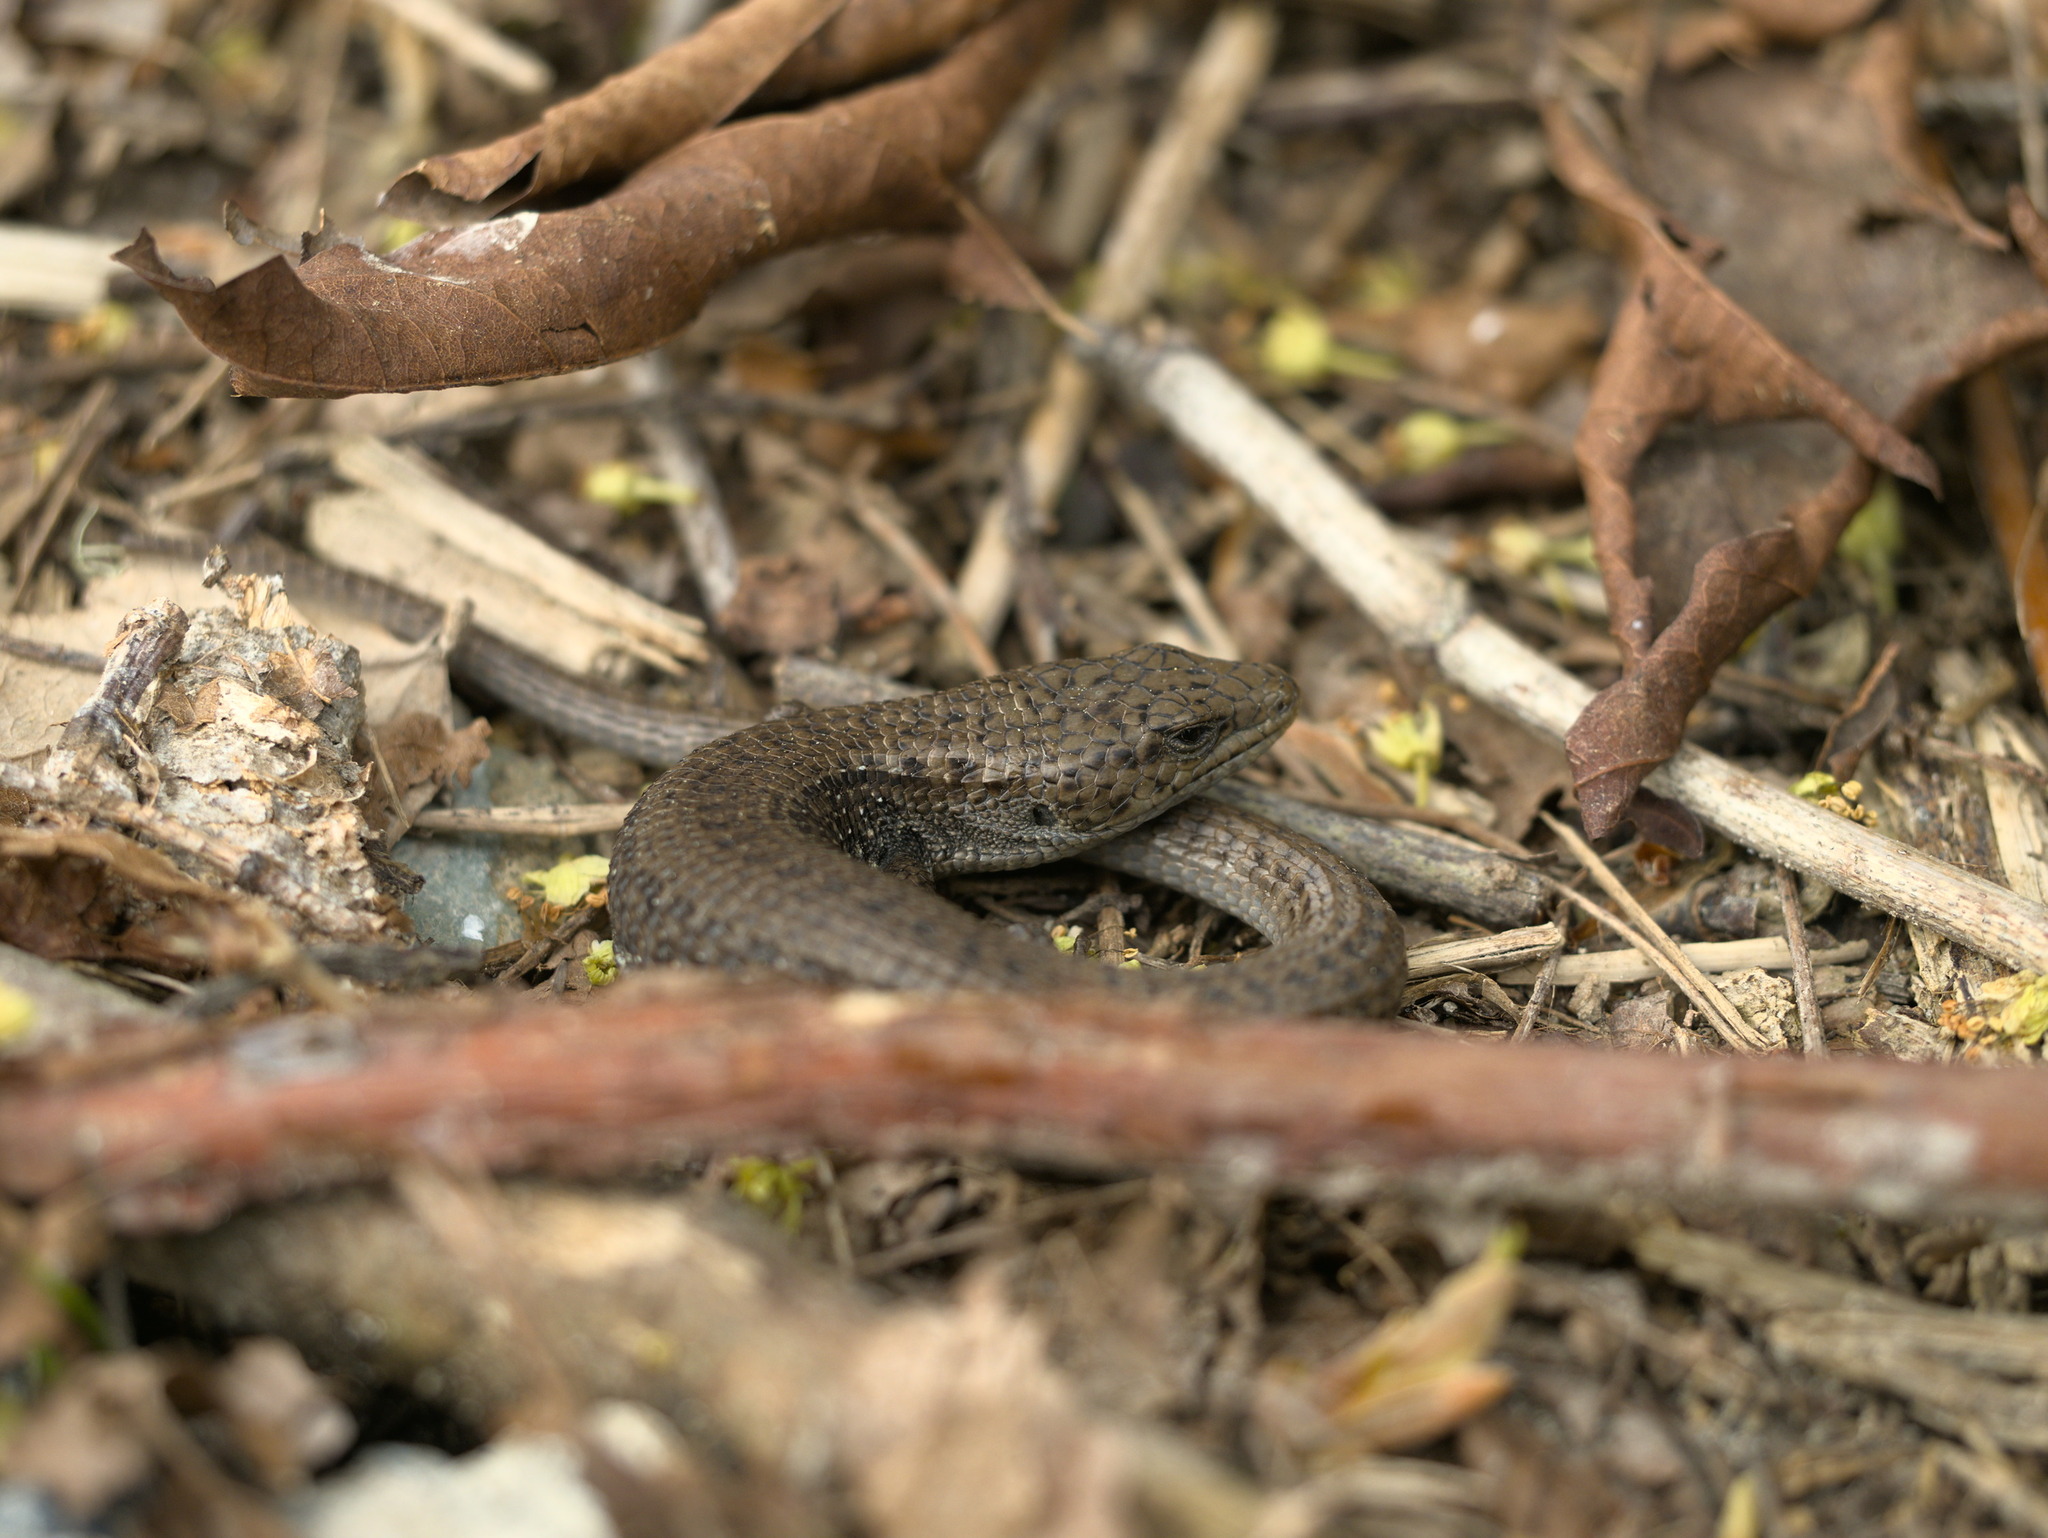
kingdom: Animalia
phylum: Chordata
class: Squamata
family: Anguidae
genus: Elgaria
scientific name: Elgaria coerulea
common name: Northern alligator lizard
